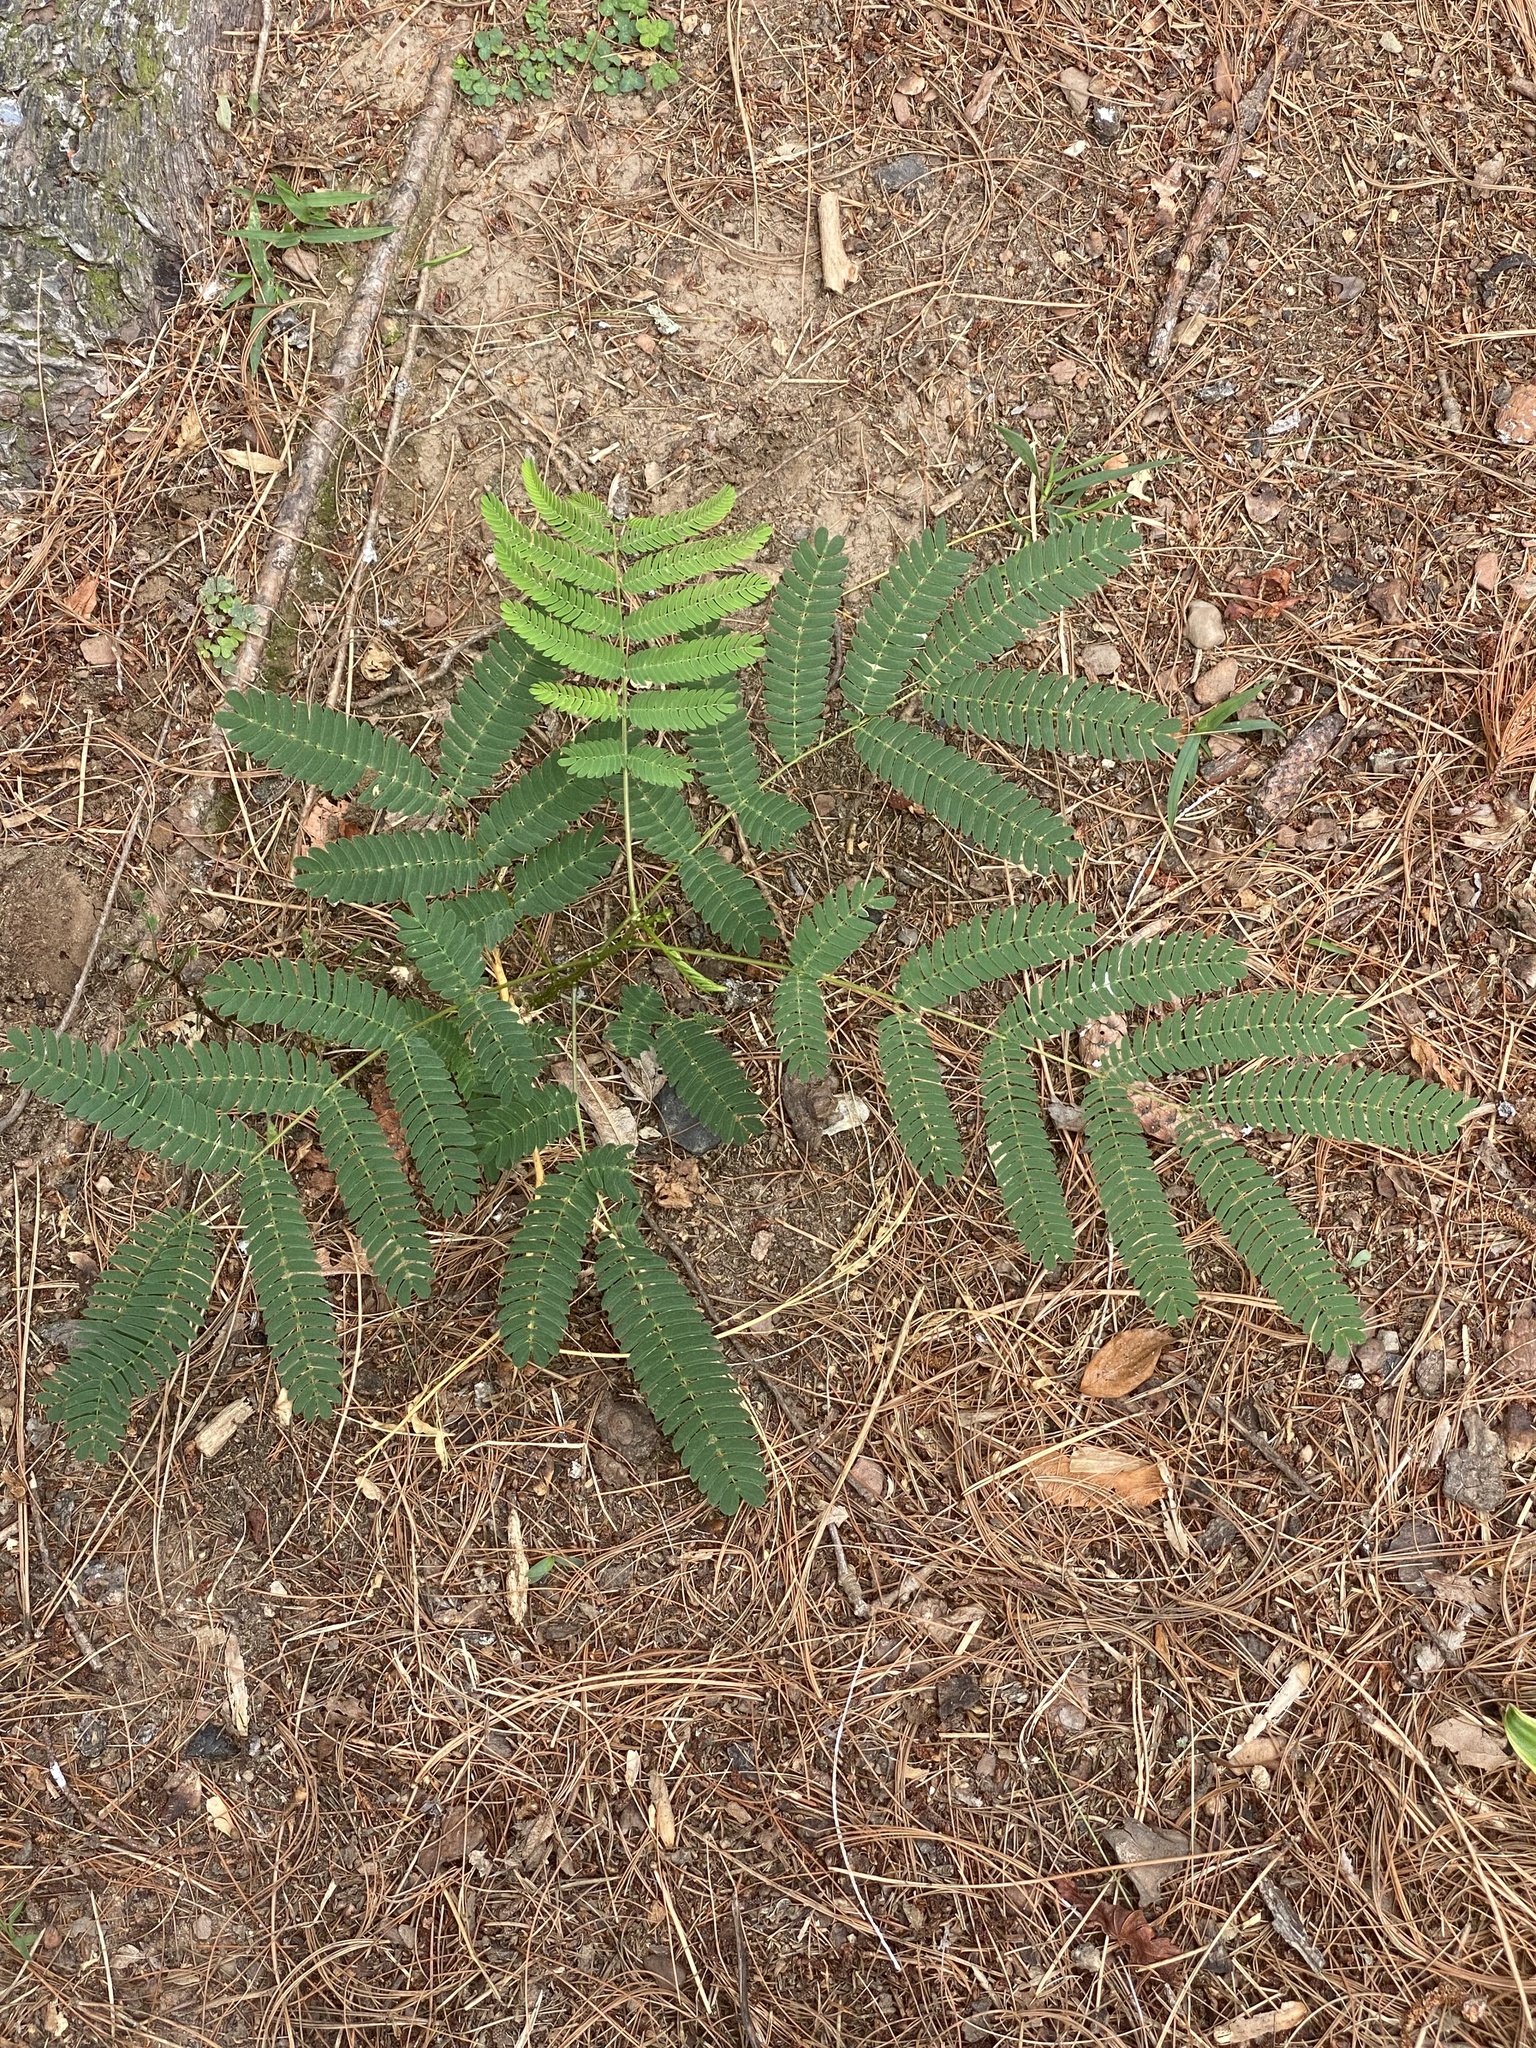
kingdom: Plantae
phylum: Tracheophyta
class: Magnoliopsida
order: Fabales
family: Fabaceae
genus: Albizia
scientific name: Albizia julibrissin
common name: Silktree
